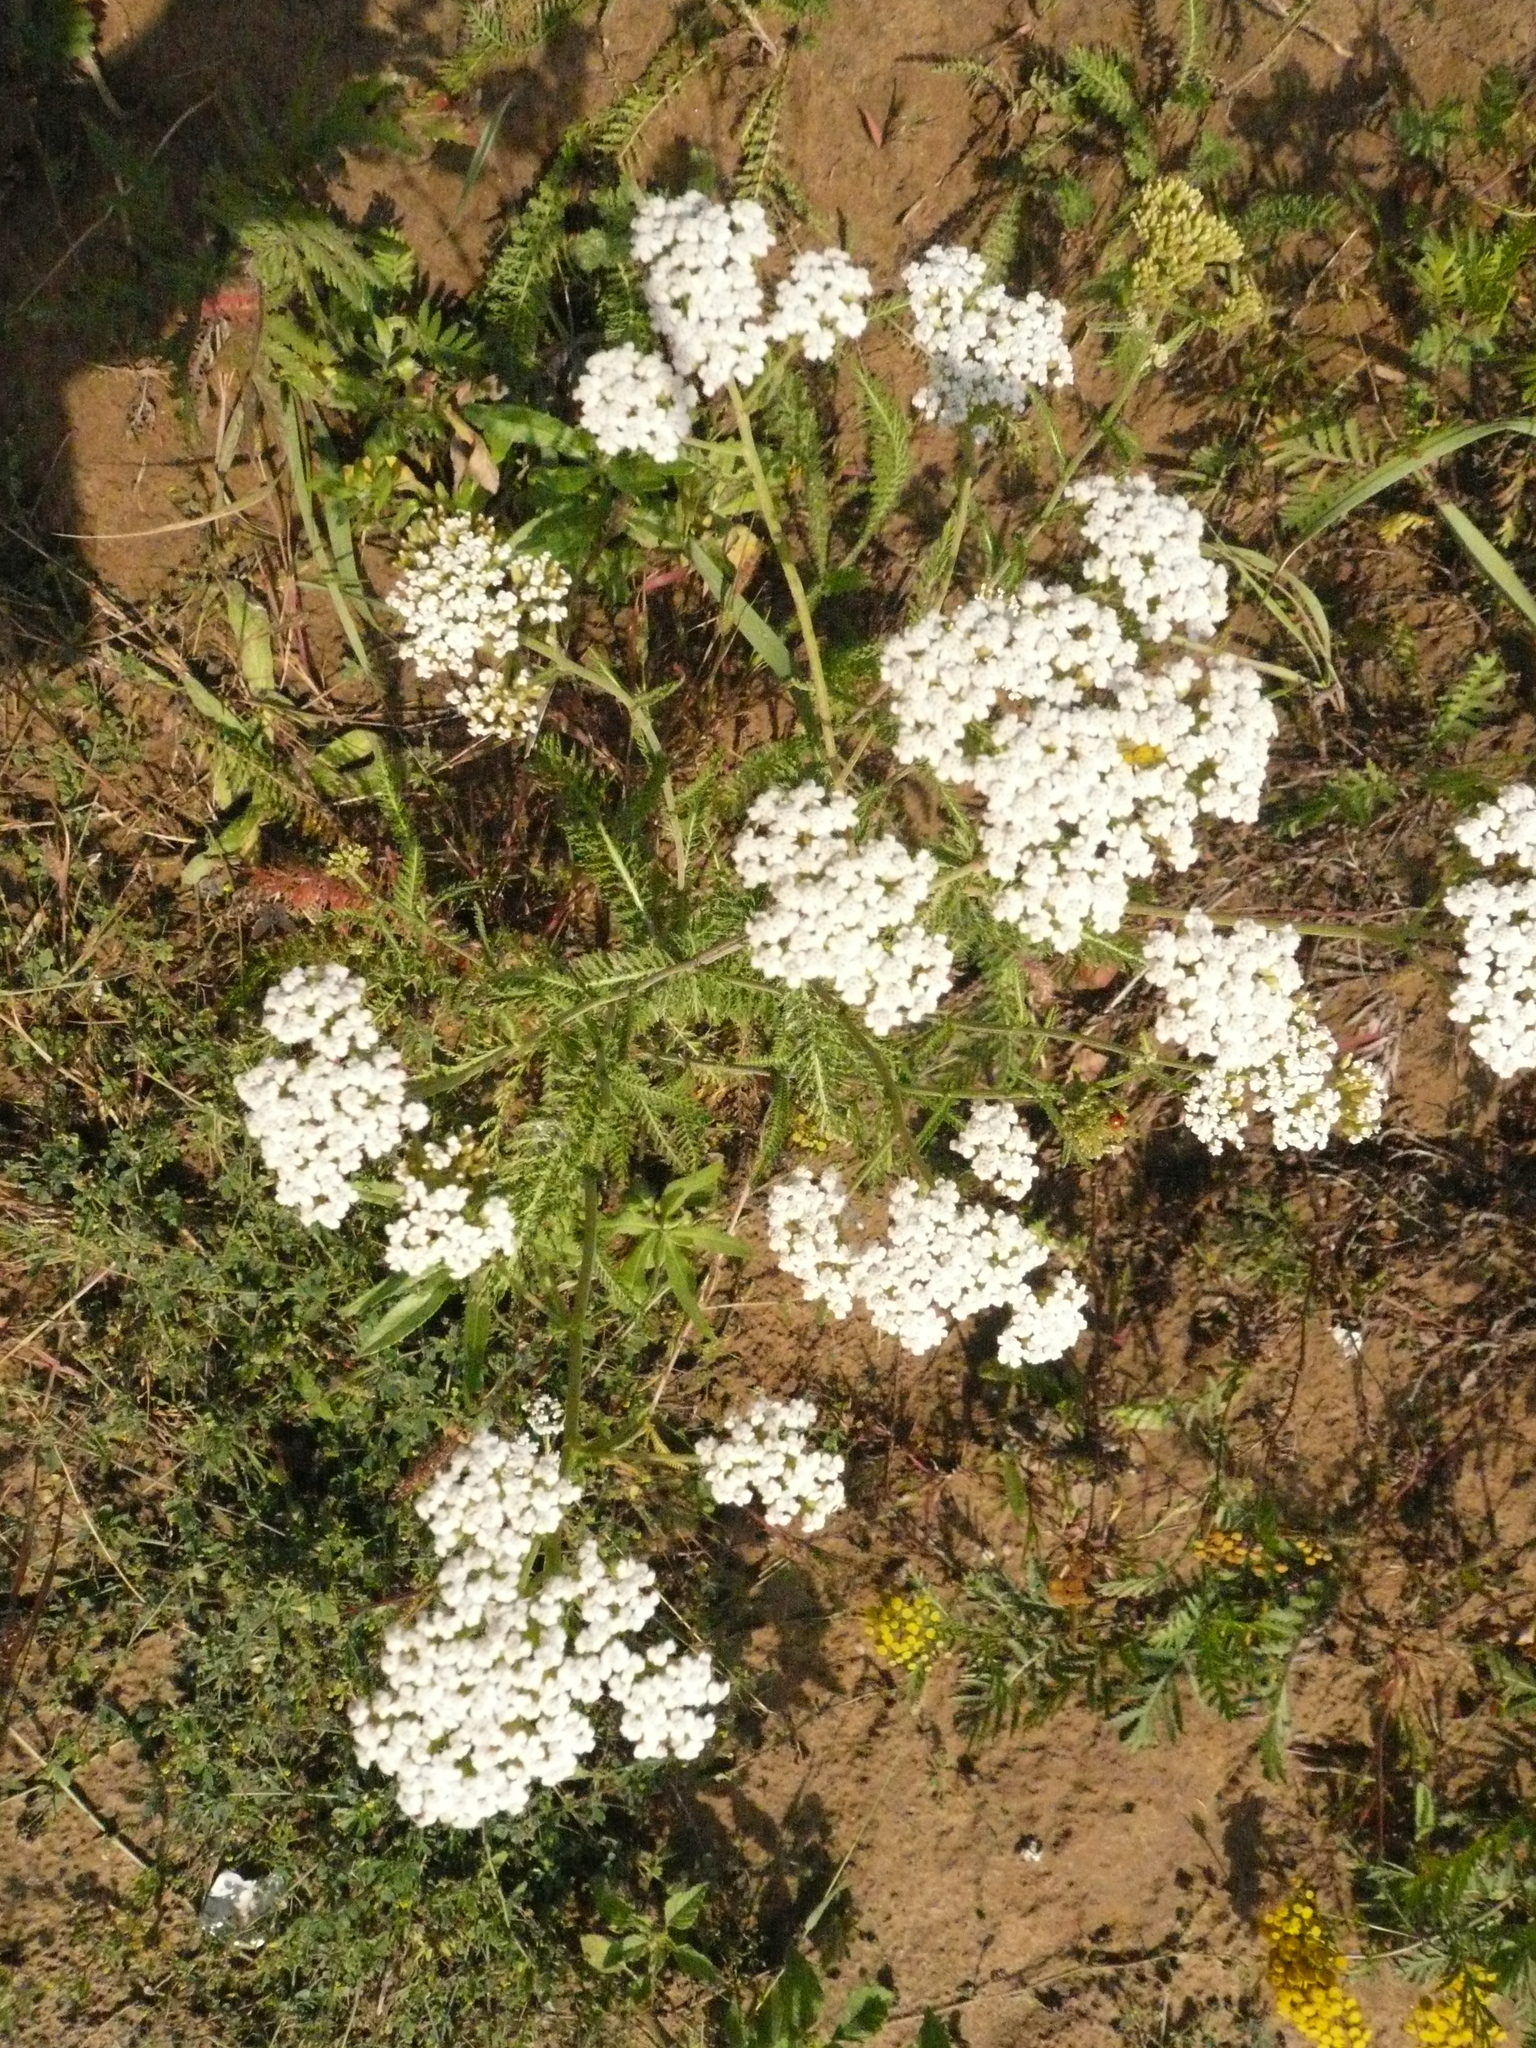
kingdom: Plantae
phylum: Tracheophyta
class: Magnoliopsida
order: Asterales
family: Asteraceae
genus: Achillea
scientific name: Achillea millefolium
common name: Yarrow
